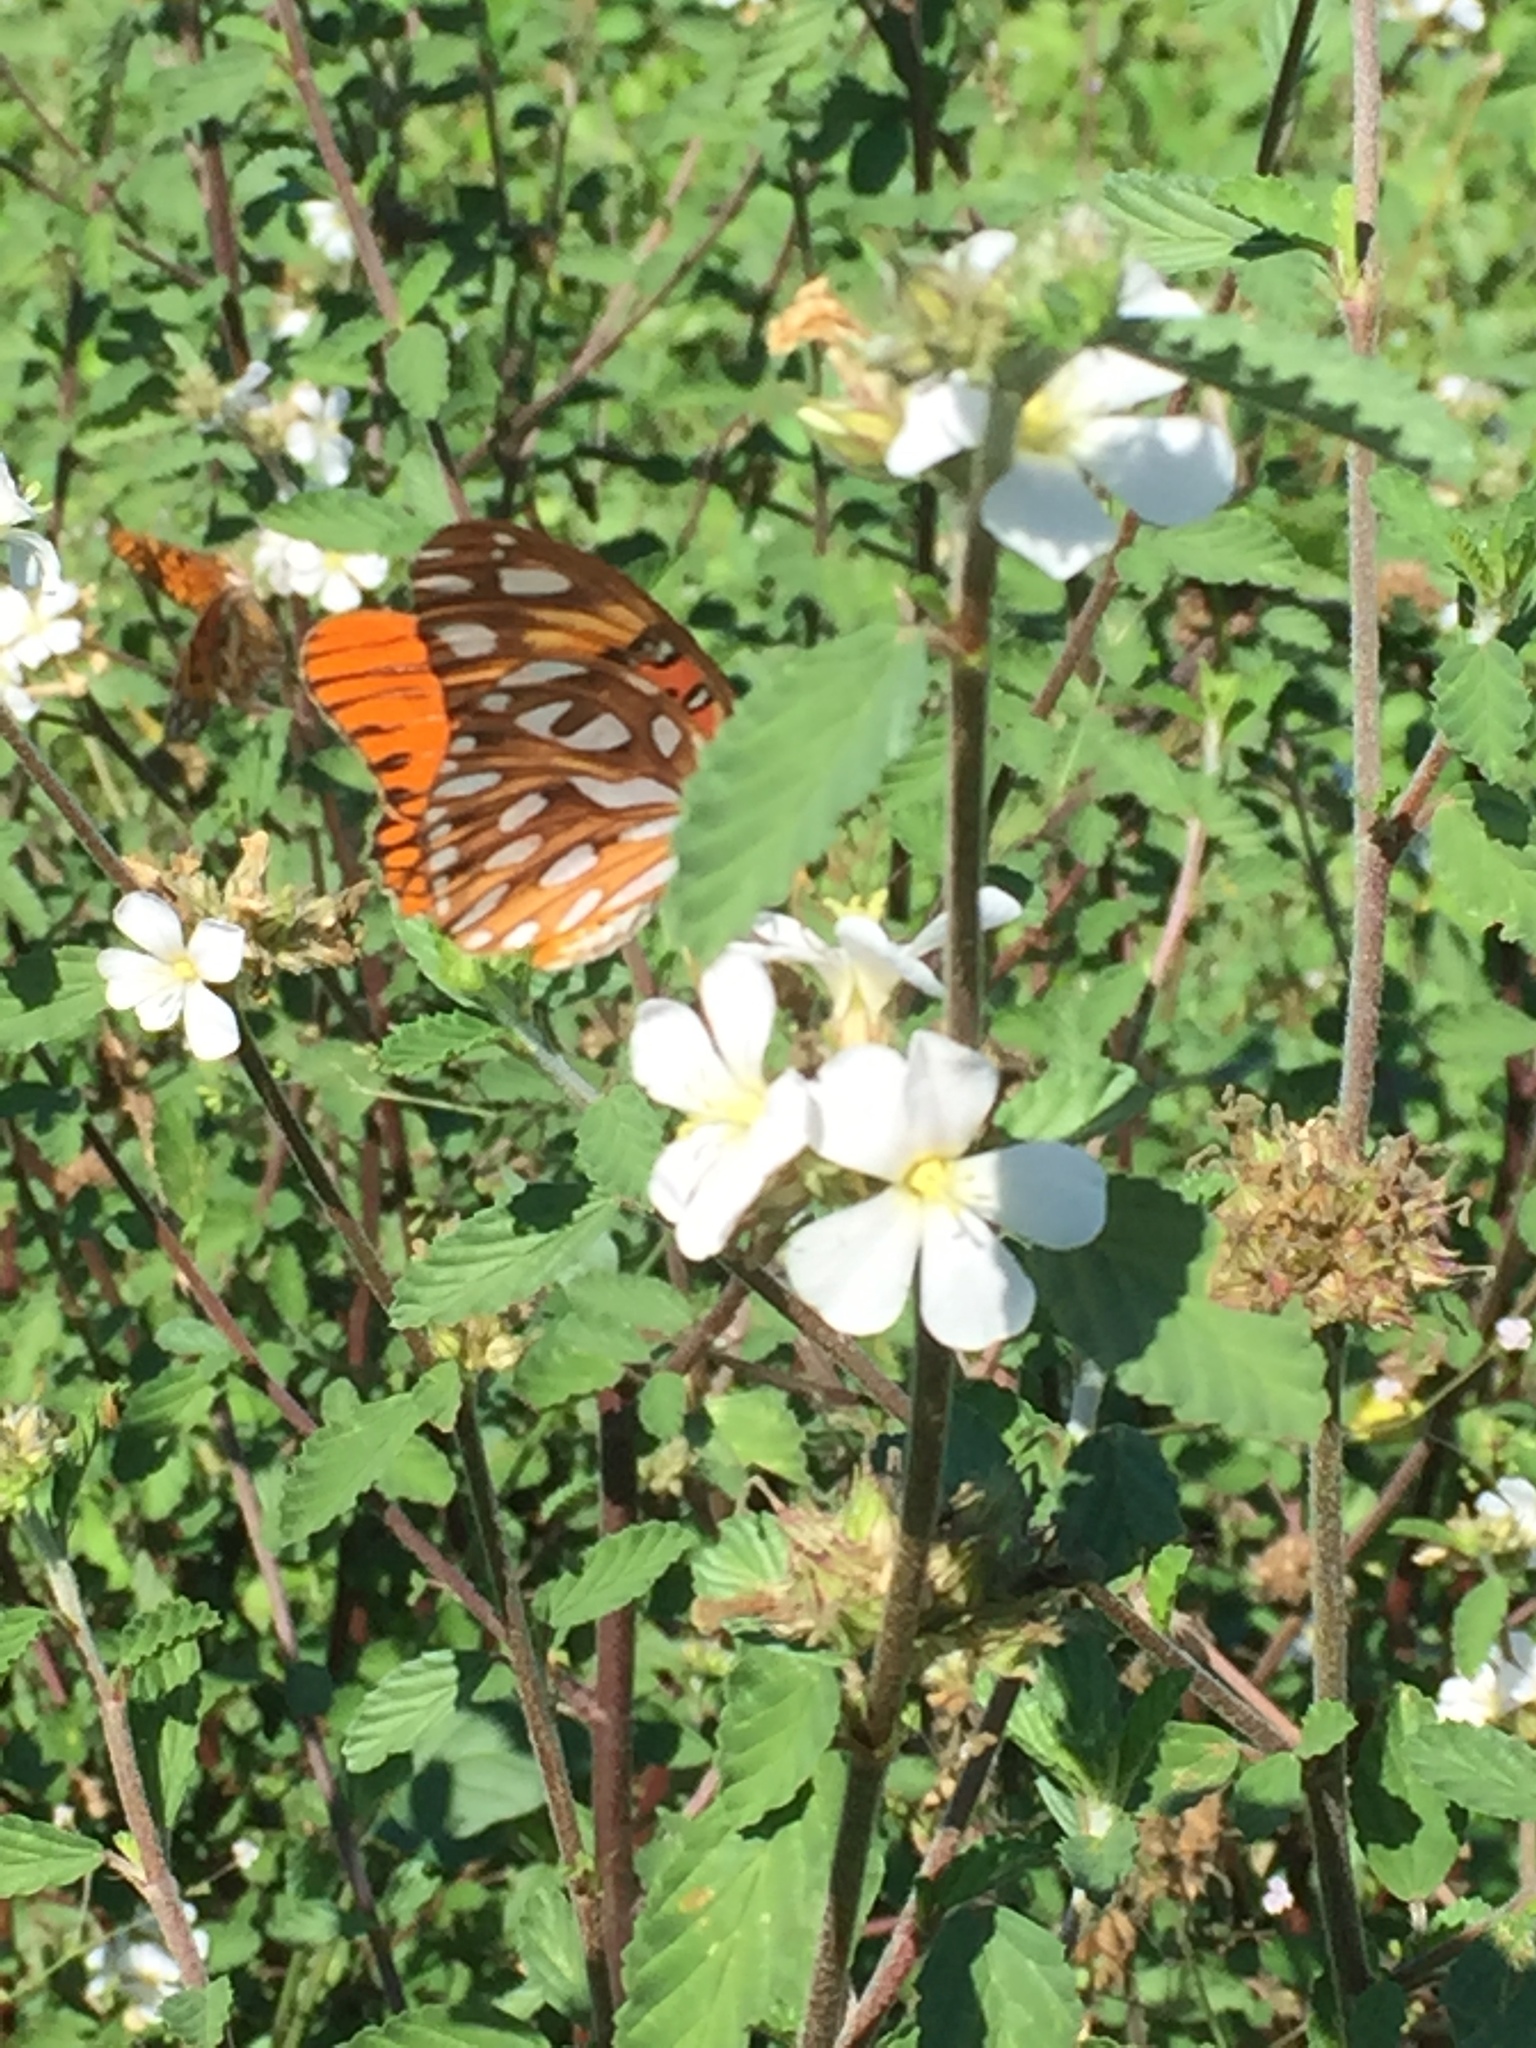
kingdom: Animalia
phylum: Arthropoda
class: Insecta
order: Lepidoptera
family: Nymphalidae
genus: Dione
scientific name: Dione vanillae
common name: Gulf fritillary
